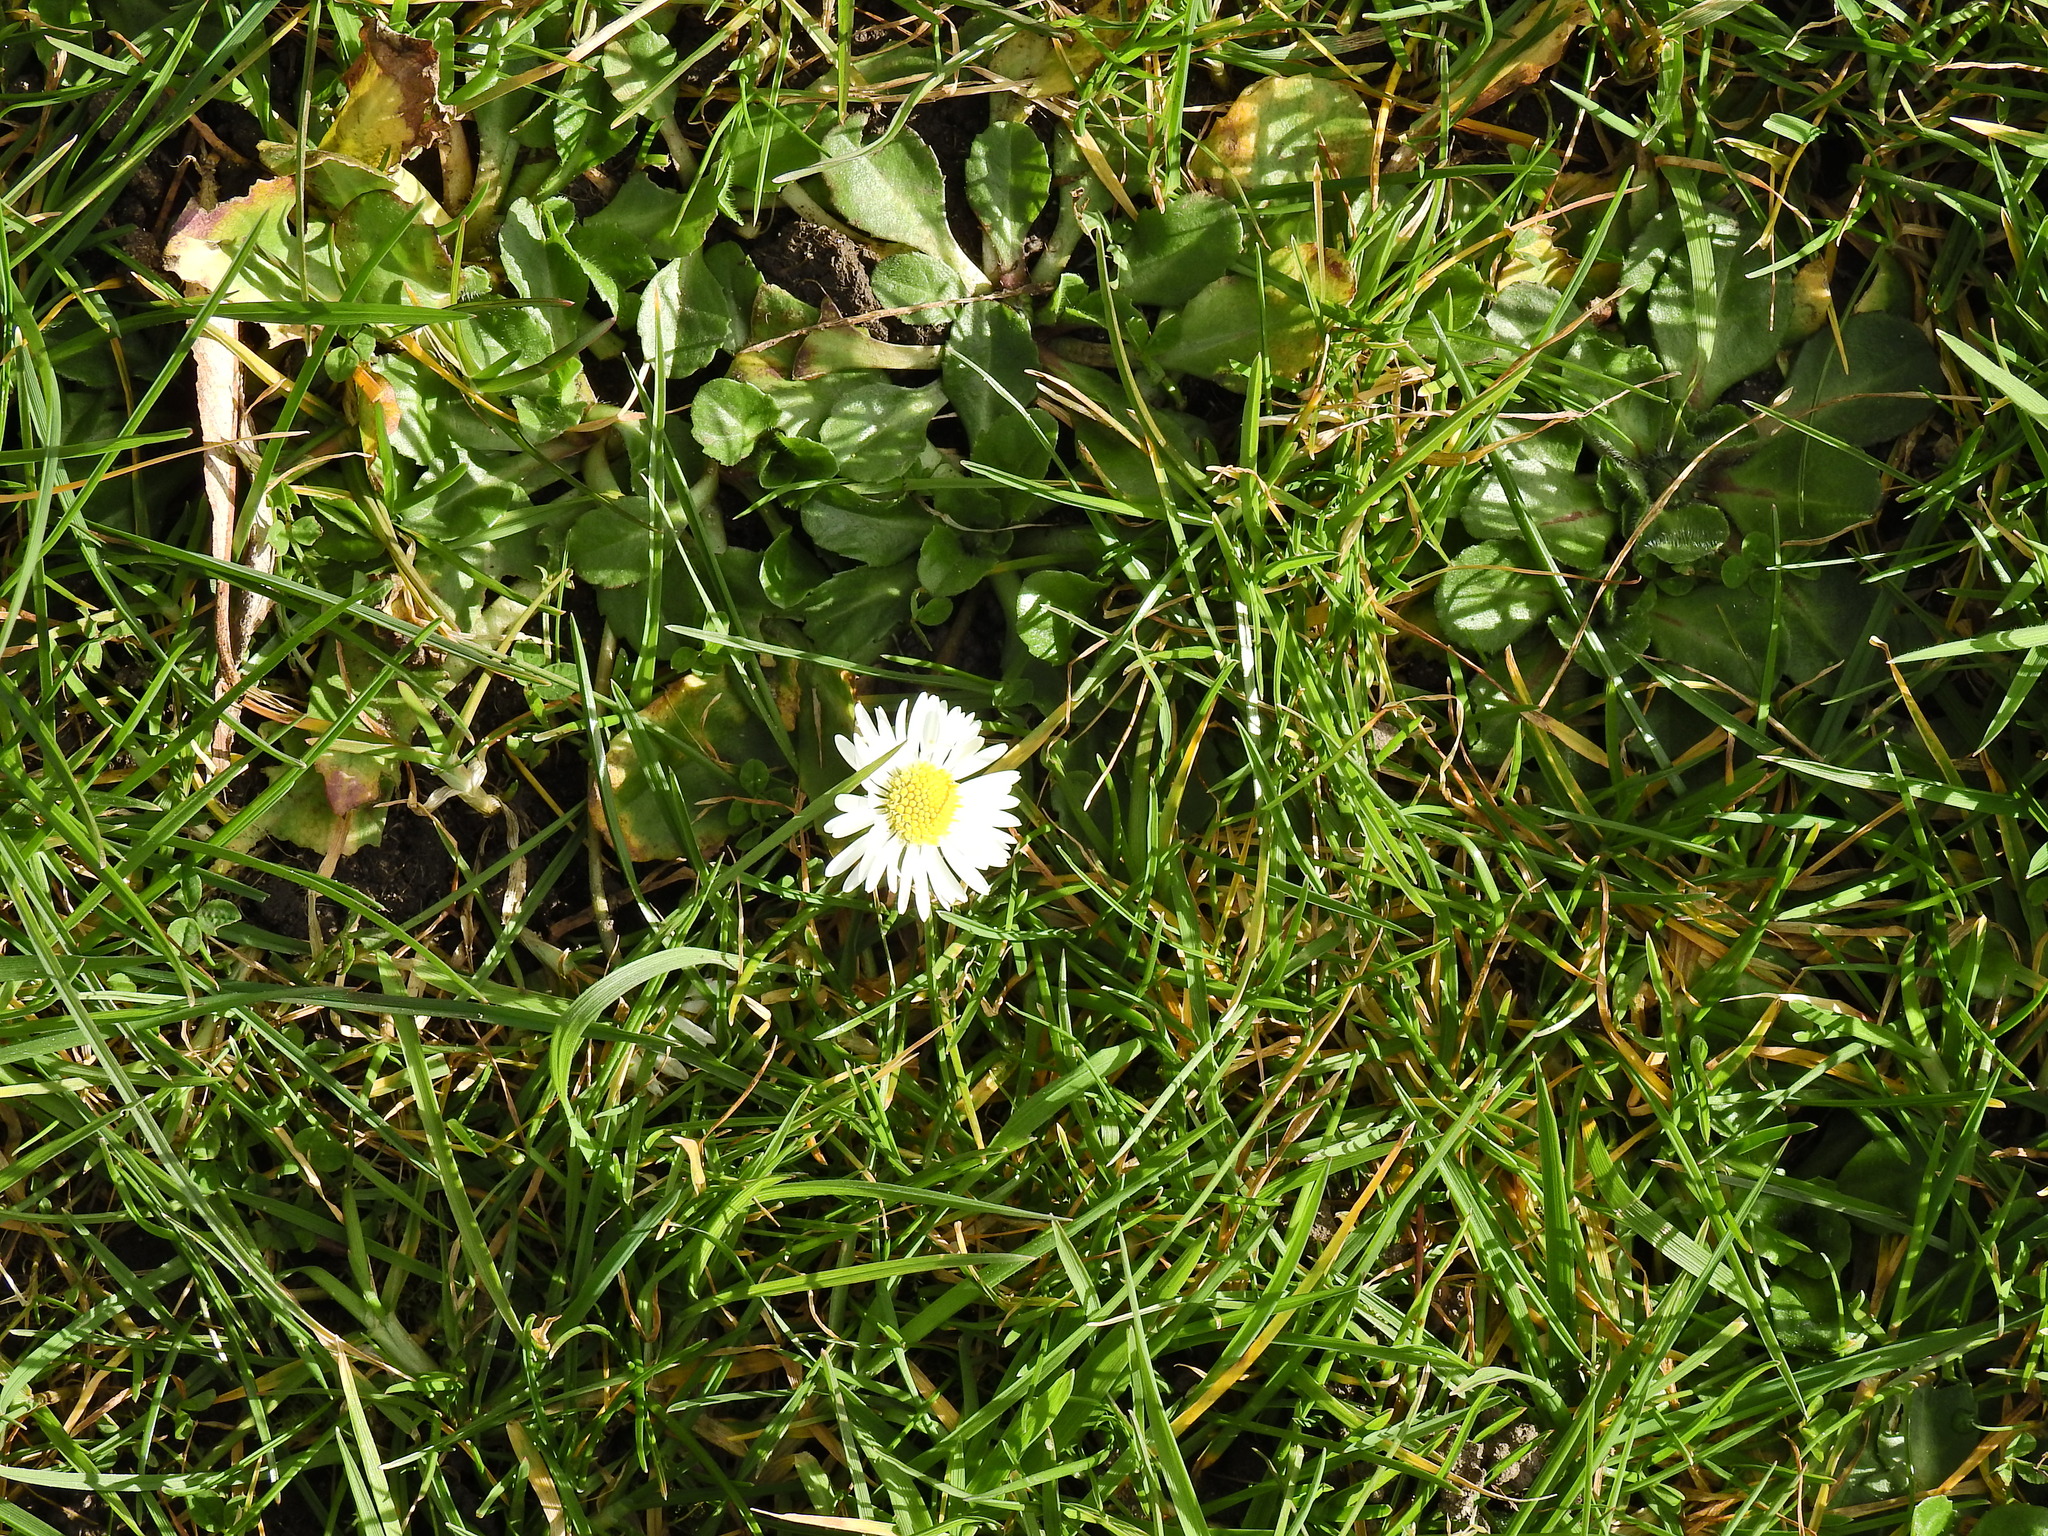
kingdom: Plantae
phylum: Tracheophyta
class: Magnoliopsida
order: Asterales
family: Asteraceae
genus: Bellis
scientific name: Bellis perennis
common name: Lawndaisy
